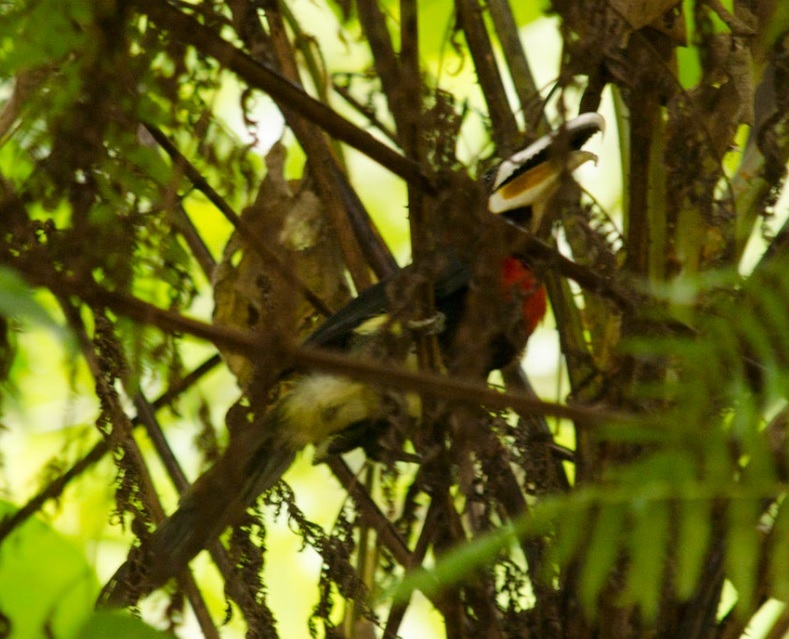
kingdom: Animalia
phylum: Chordata
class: Aves
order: Piciformes
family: Ramphastidae
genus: Pteroglossus
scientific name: Pteroglossus azara
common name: Ivory-billed aracari
